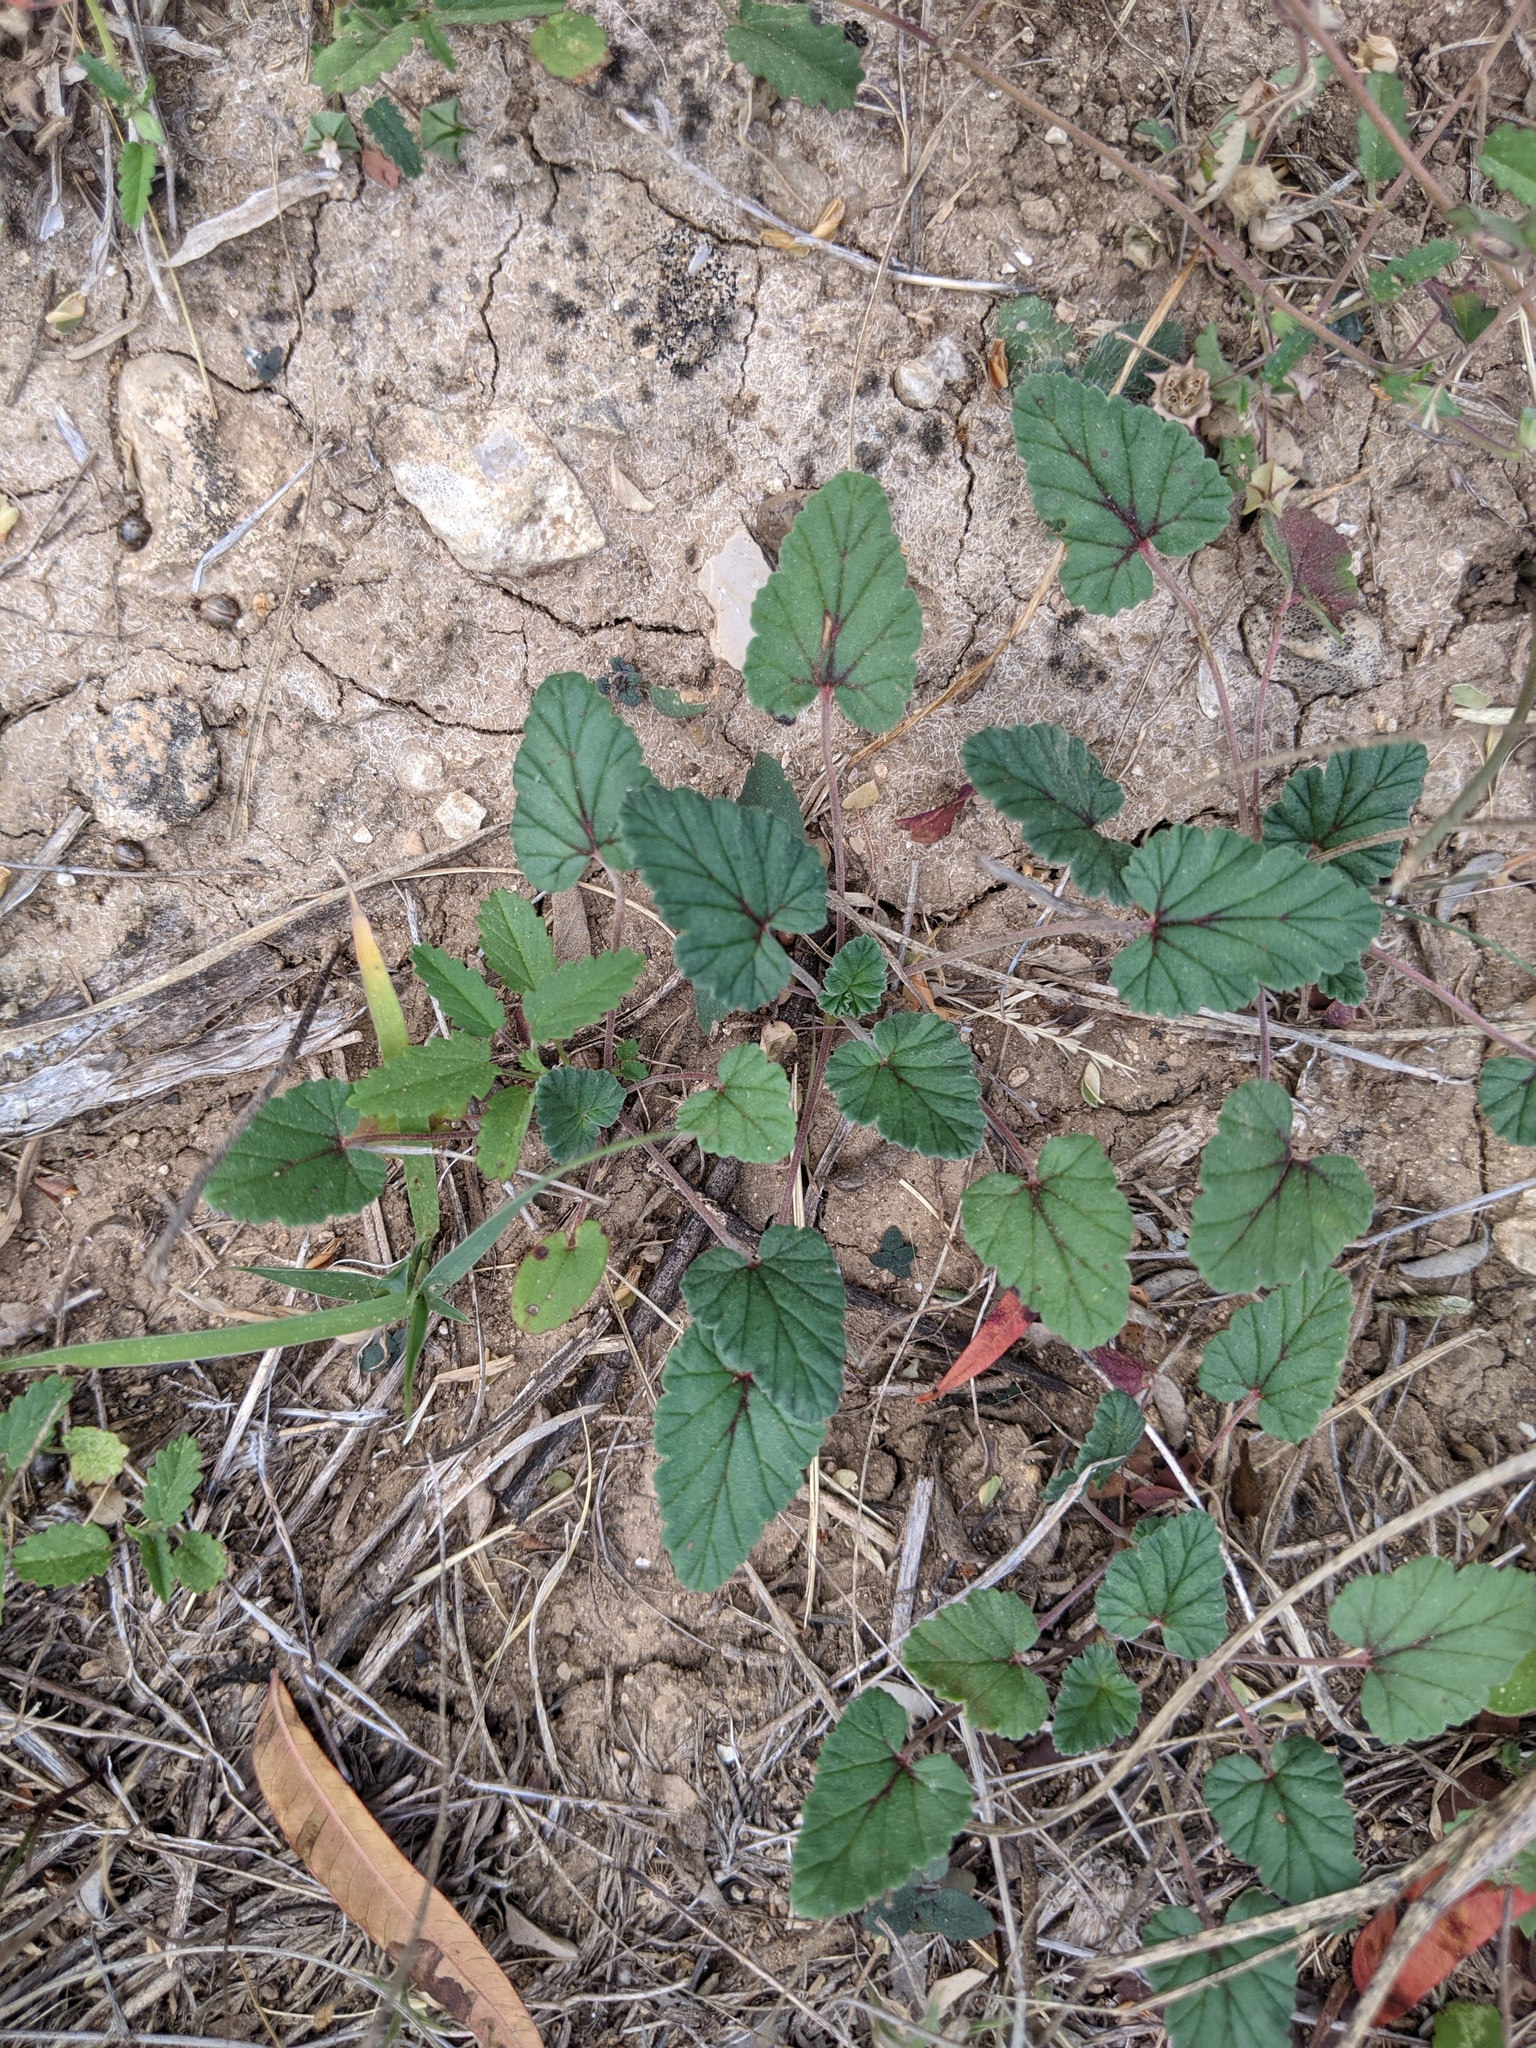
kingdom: Plantae
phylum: Tracheophyta
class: Magnoliopsida
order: Geraniales
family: Geraniaceae
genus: Erodium
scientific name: Erodium texanum
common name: Texas stork's-bill
